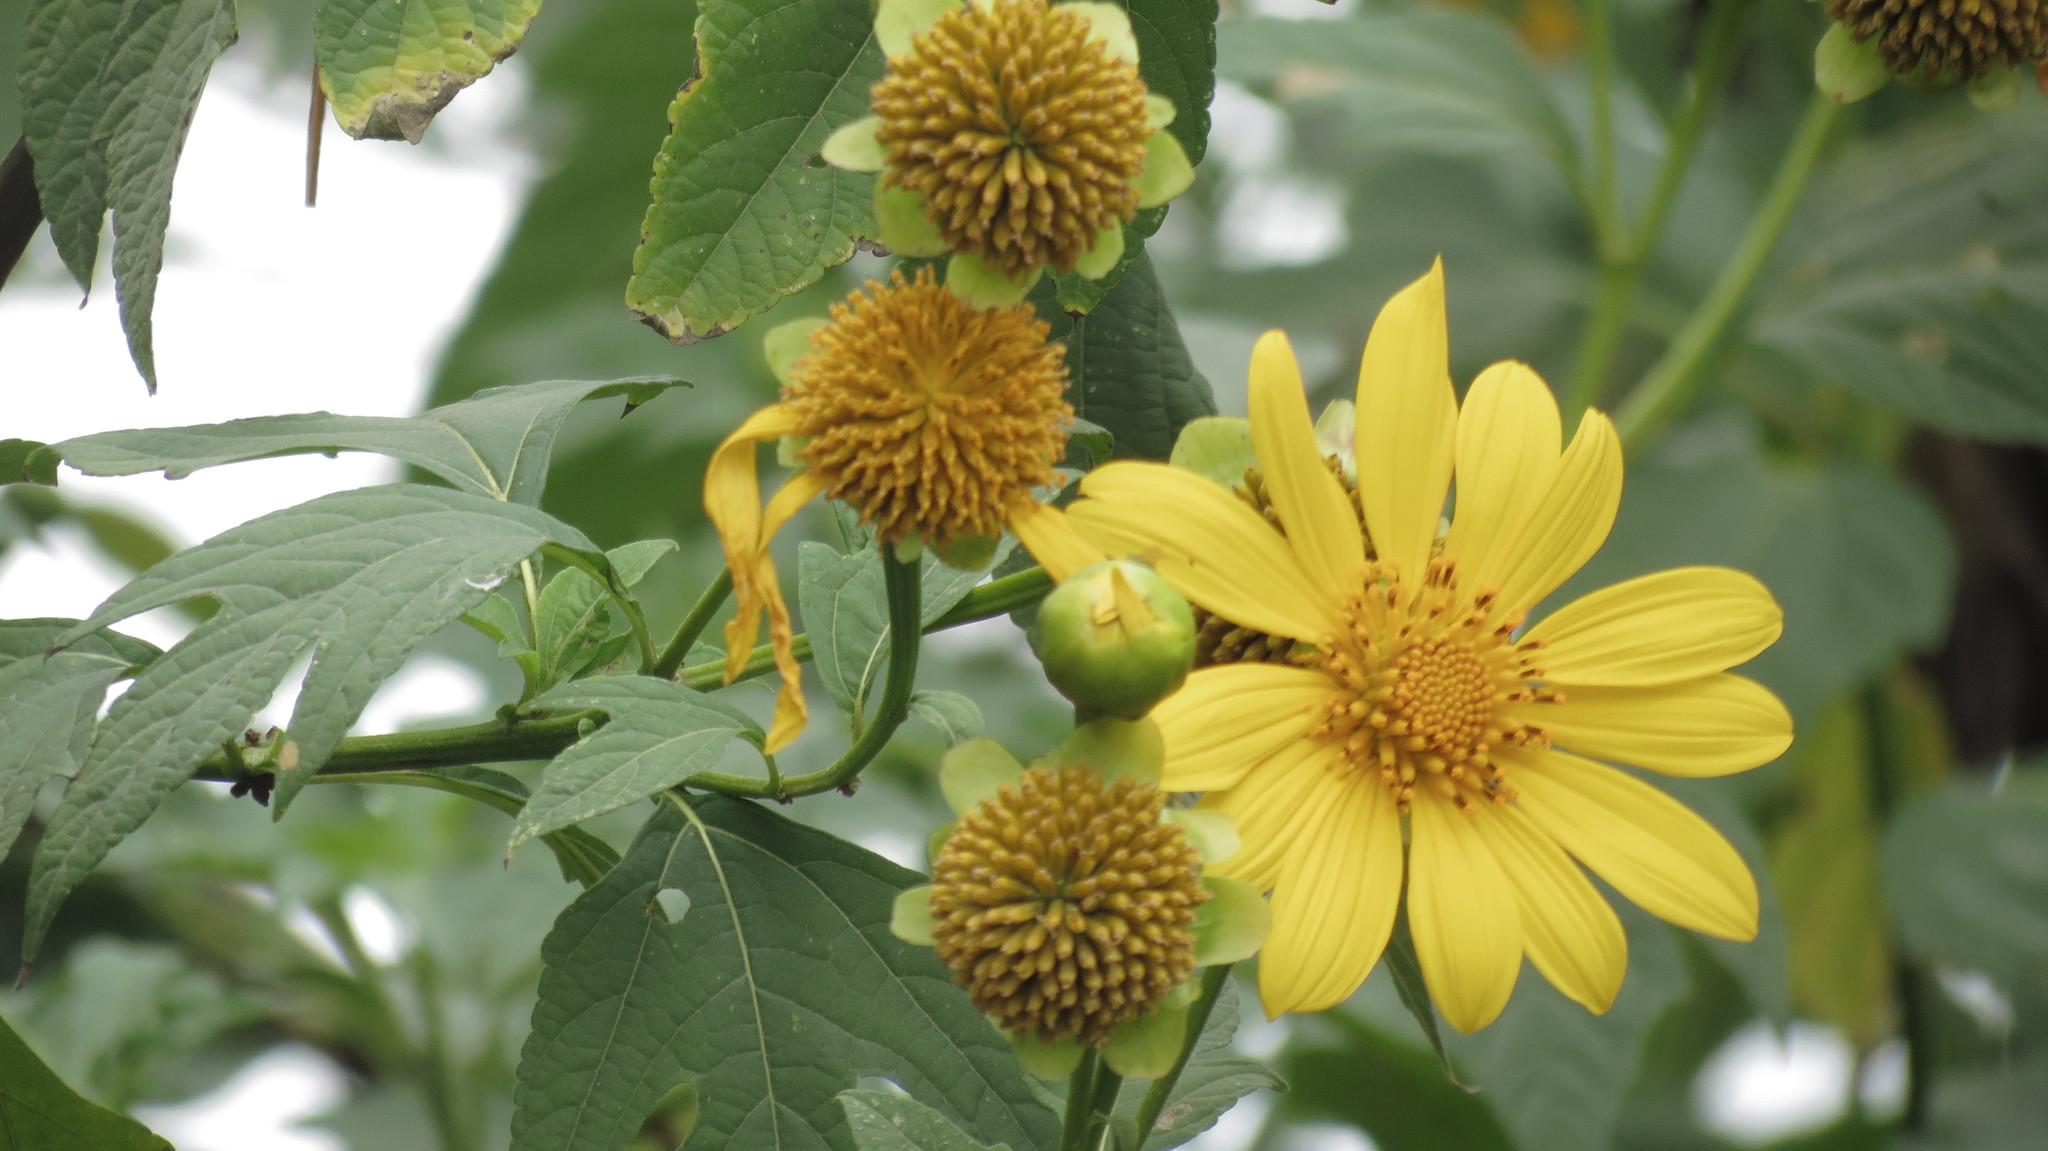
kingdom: Plantae
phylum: Tracheophyta
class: Magnoliopsida
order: Asterales
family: Asteraceae
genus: Tithonia
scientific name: Tithonia diversifolia
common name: Tree marigold
